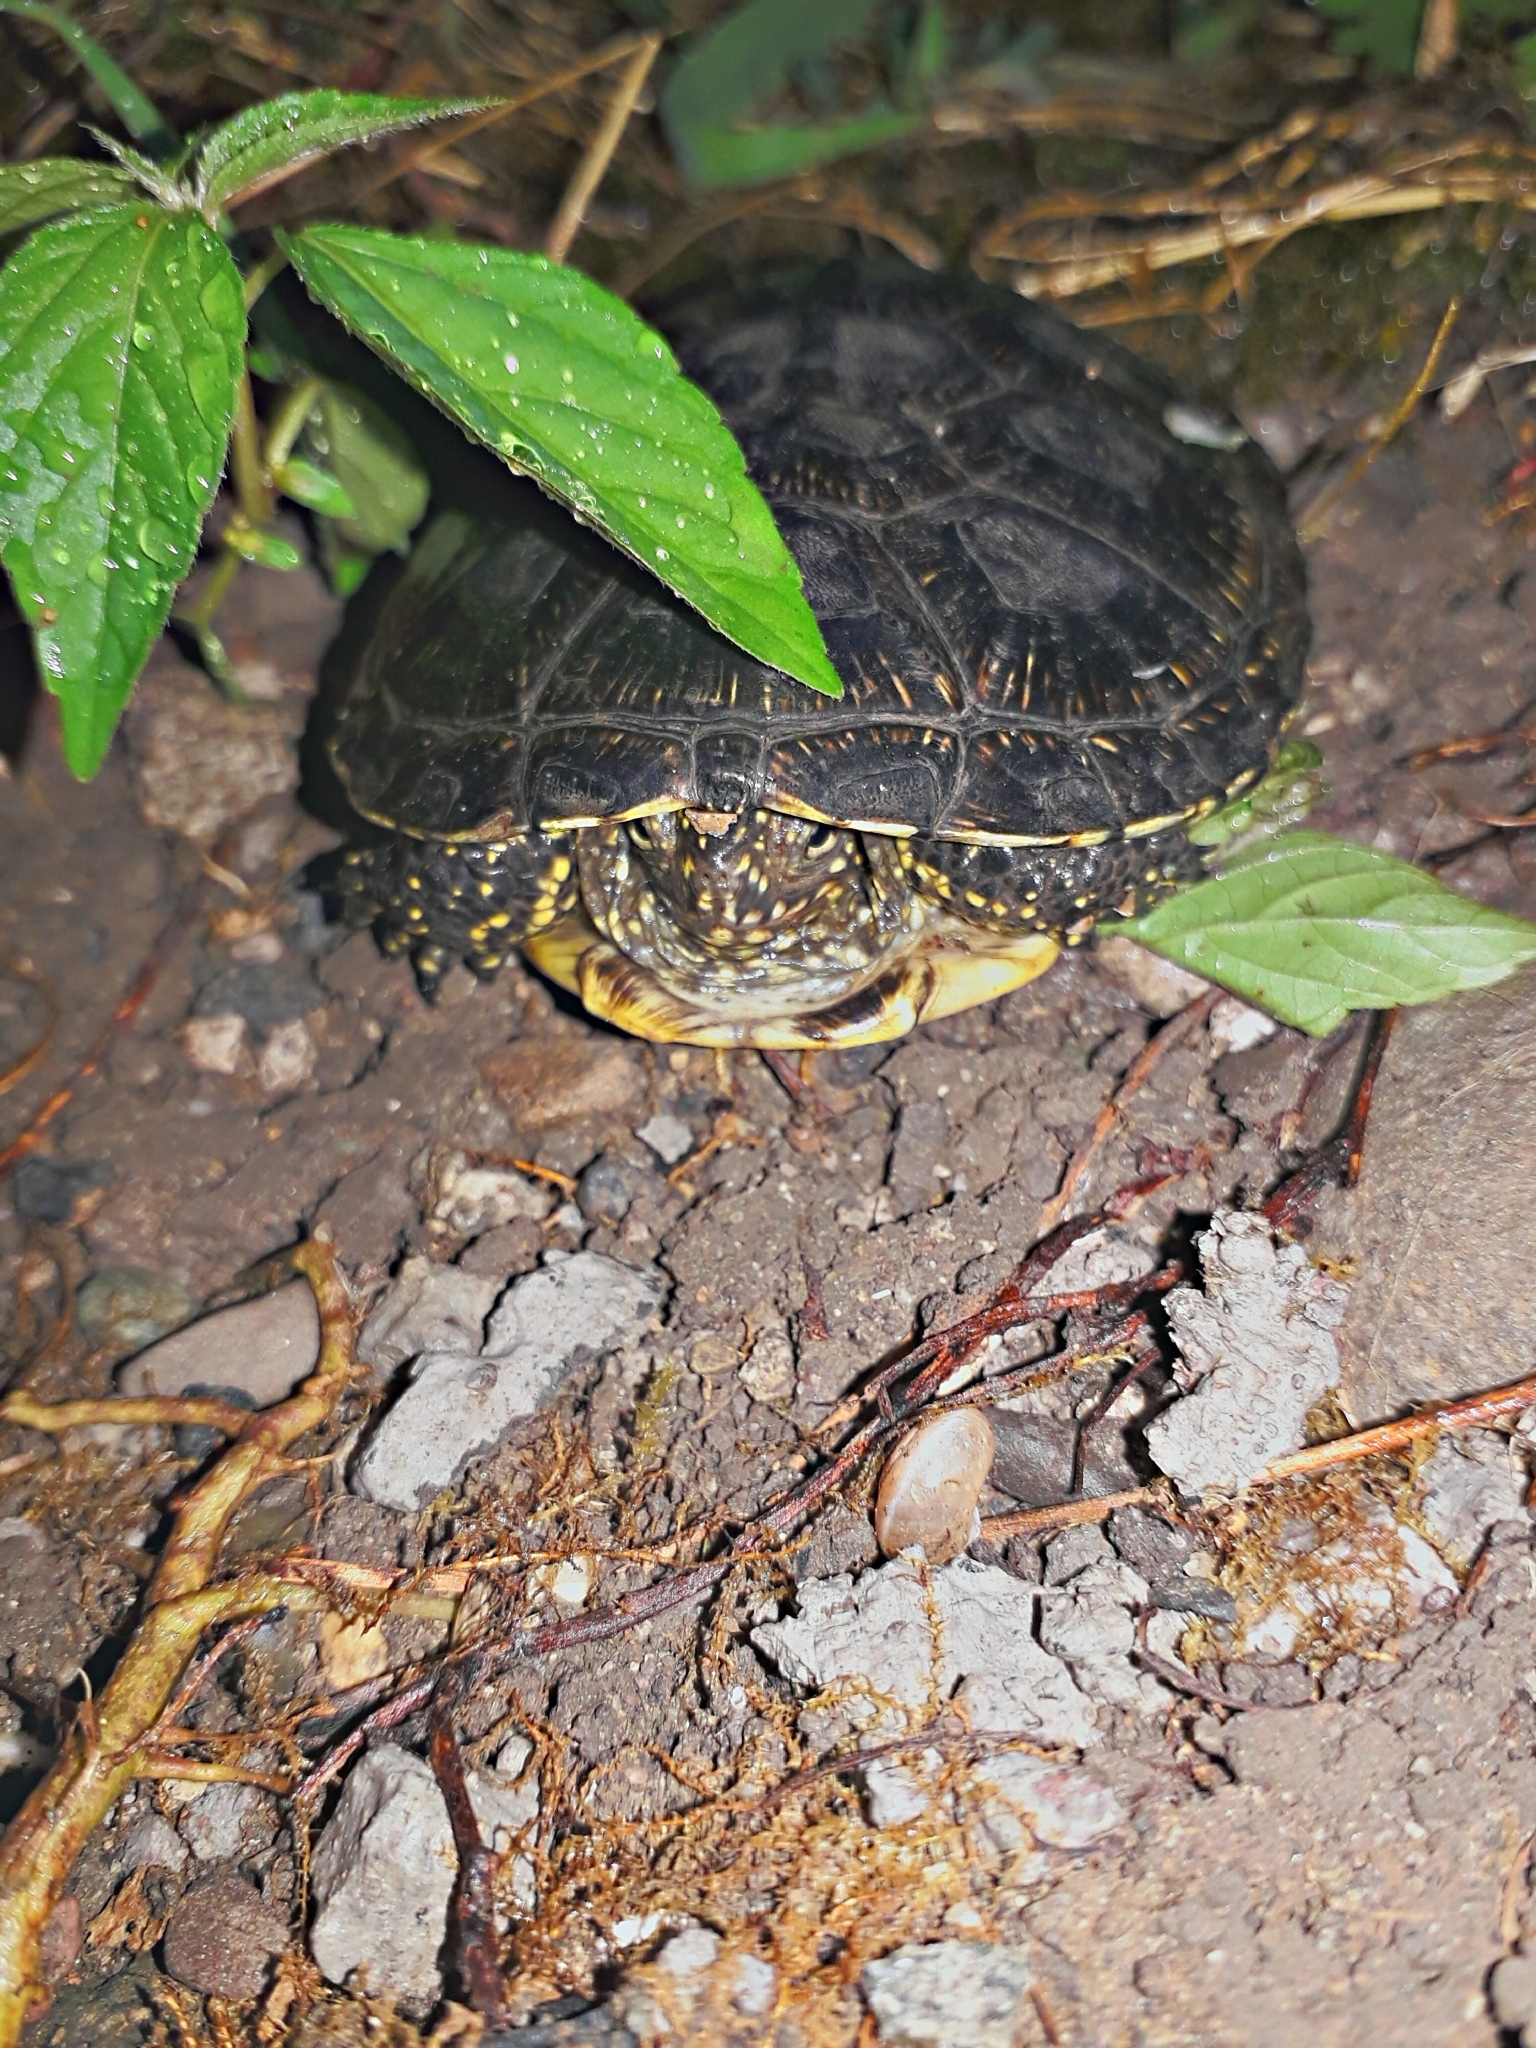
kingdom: Animalia
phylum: Chordata
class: Testudines
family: Emydidae
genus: Emys
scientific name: Emys orbicularis
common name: European pond turtle
